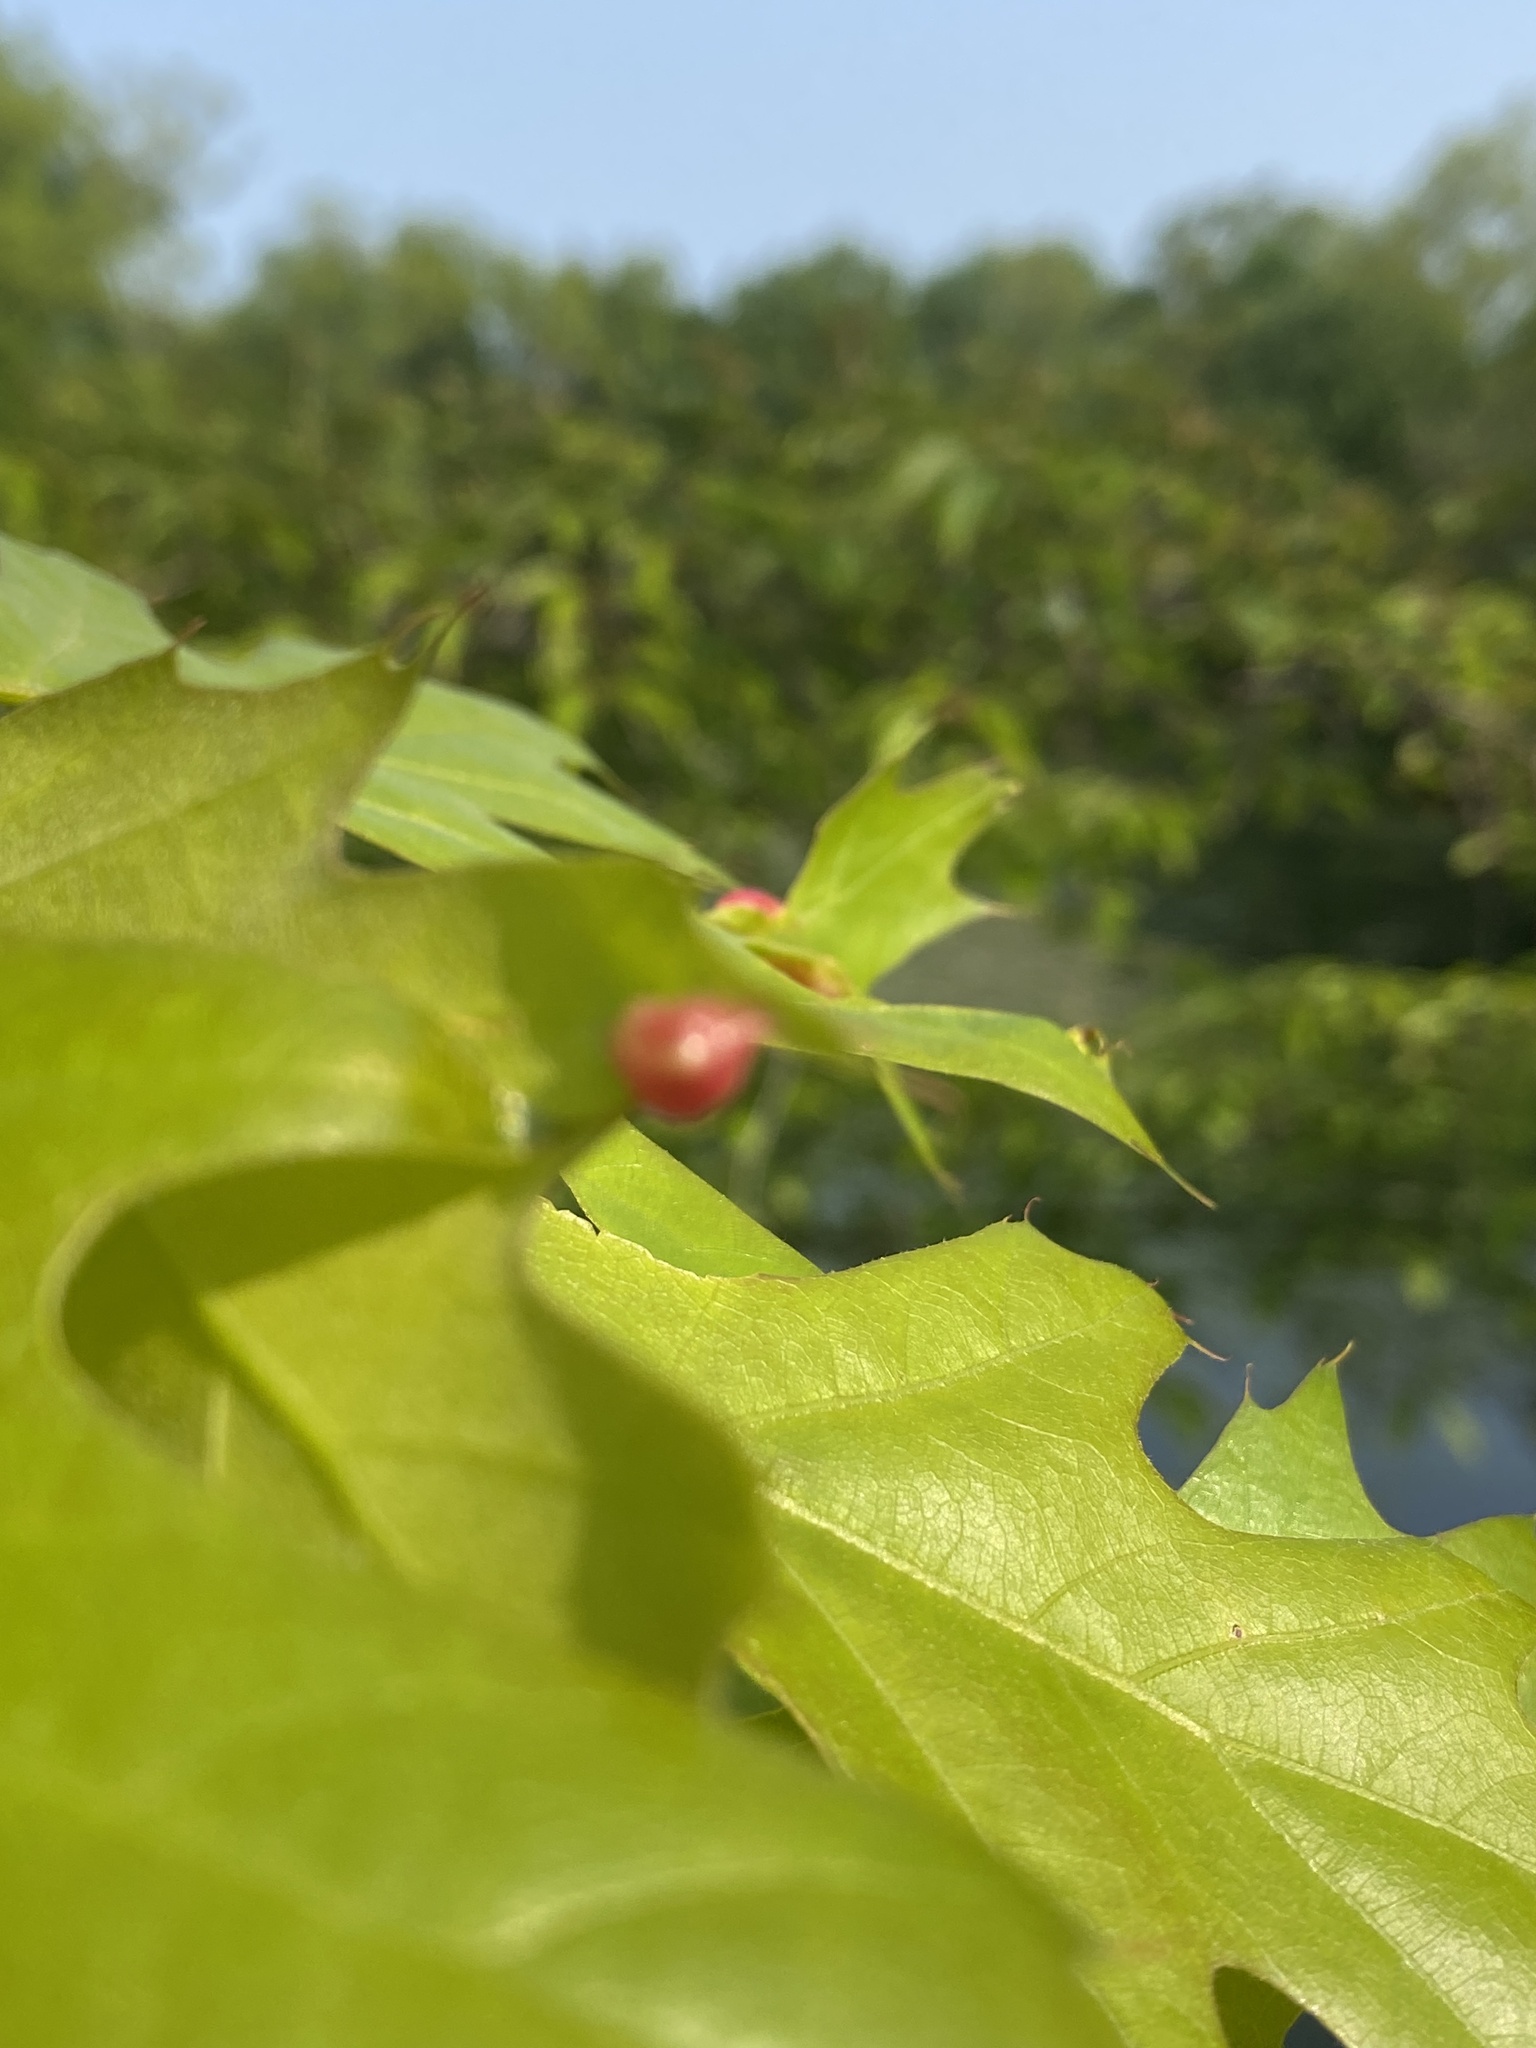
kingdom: Animalia
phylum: Arthropoda
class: Insecta
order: Diptera
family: Cecidomyiidae
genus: Macrodiplosis
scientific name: Macrodiplosis majalis
